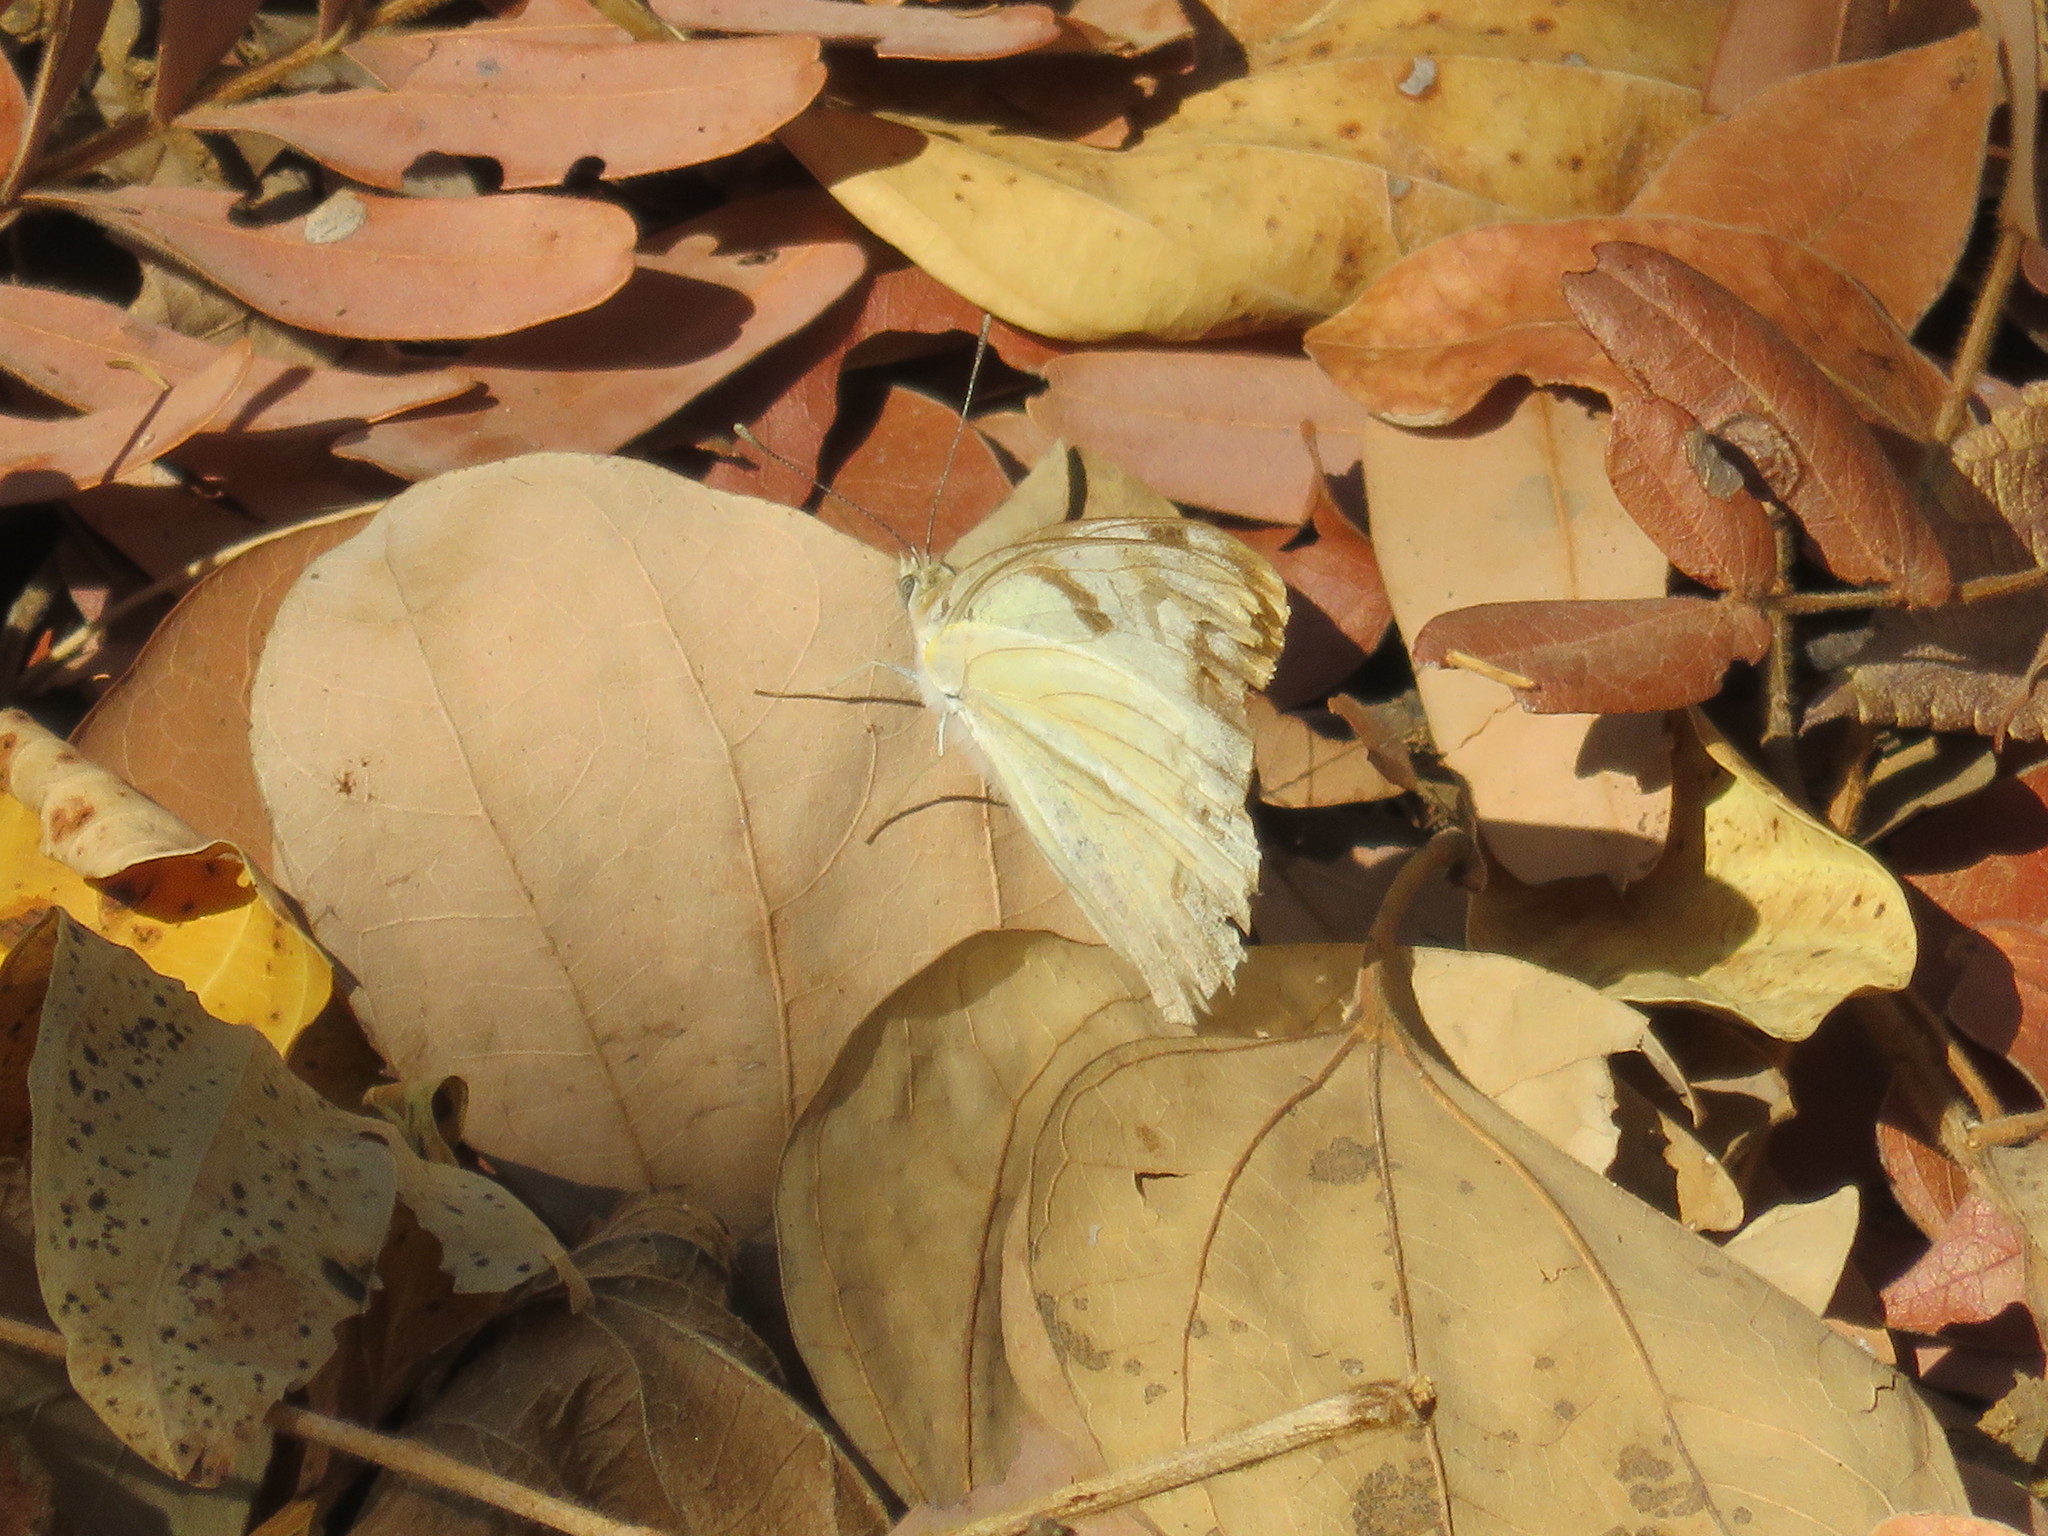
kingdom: Animalia
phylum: Arthropoda
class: Insecta
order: Lepidoptera
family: Pieridae
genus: Belenois
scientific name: Belenois gidica
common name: Pointed caper white
